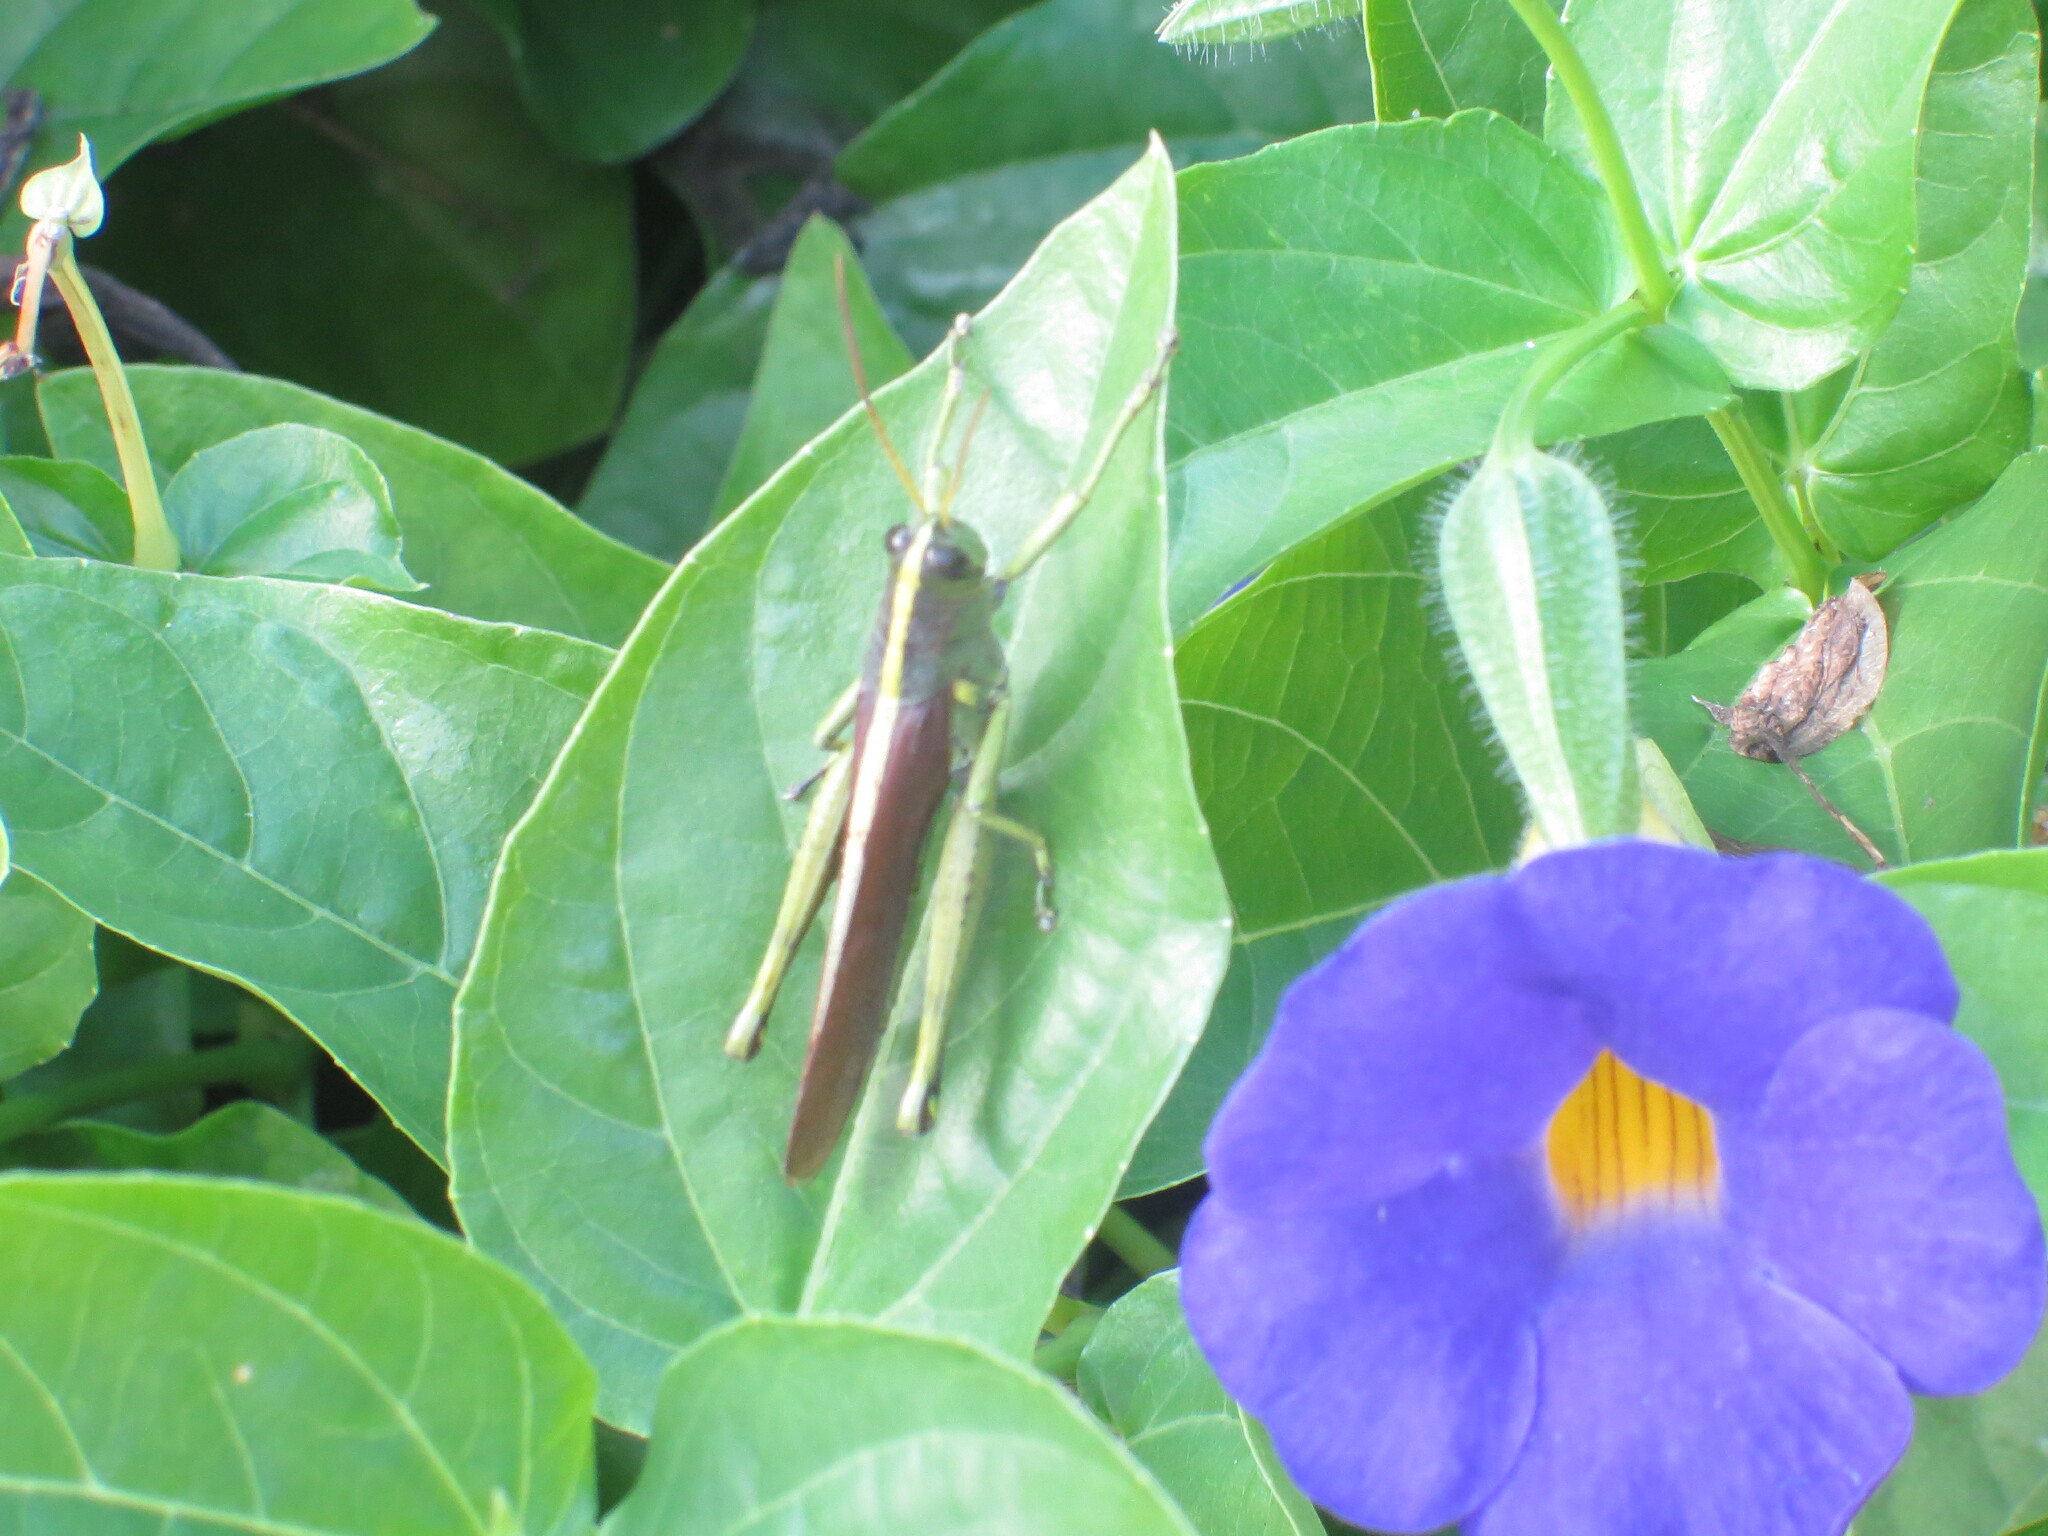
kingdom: Animalia
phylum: Arthropoda
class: Insecta
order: Orthoptera
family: Acrididae
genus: Schistocerca
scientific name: Schistocerca obscura
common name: Obscure bird grasshopper
